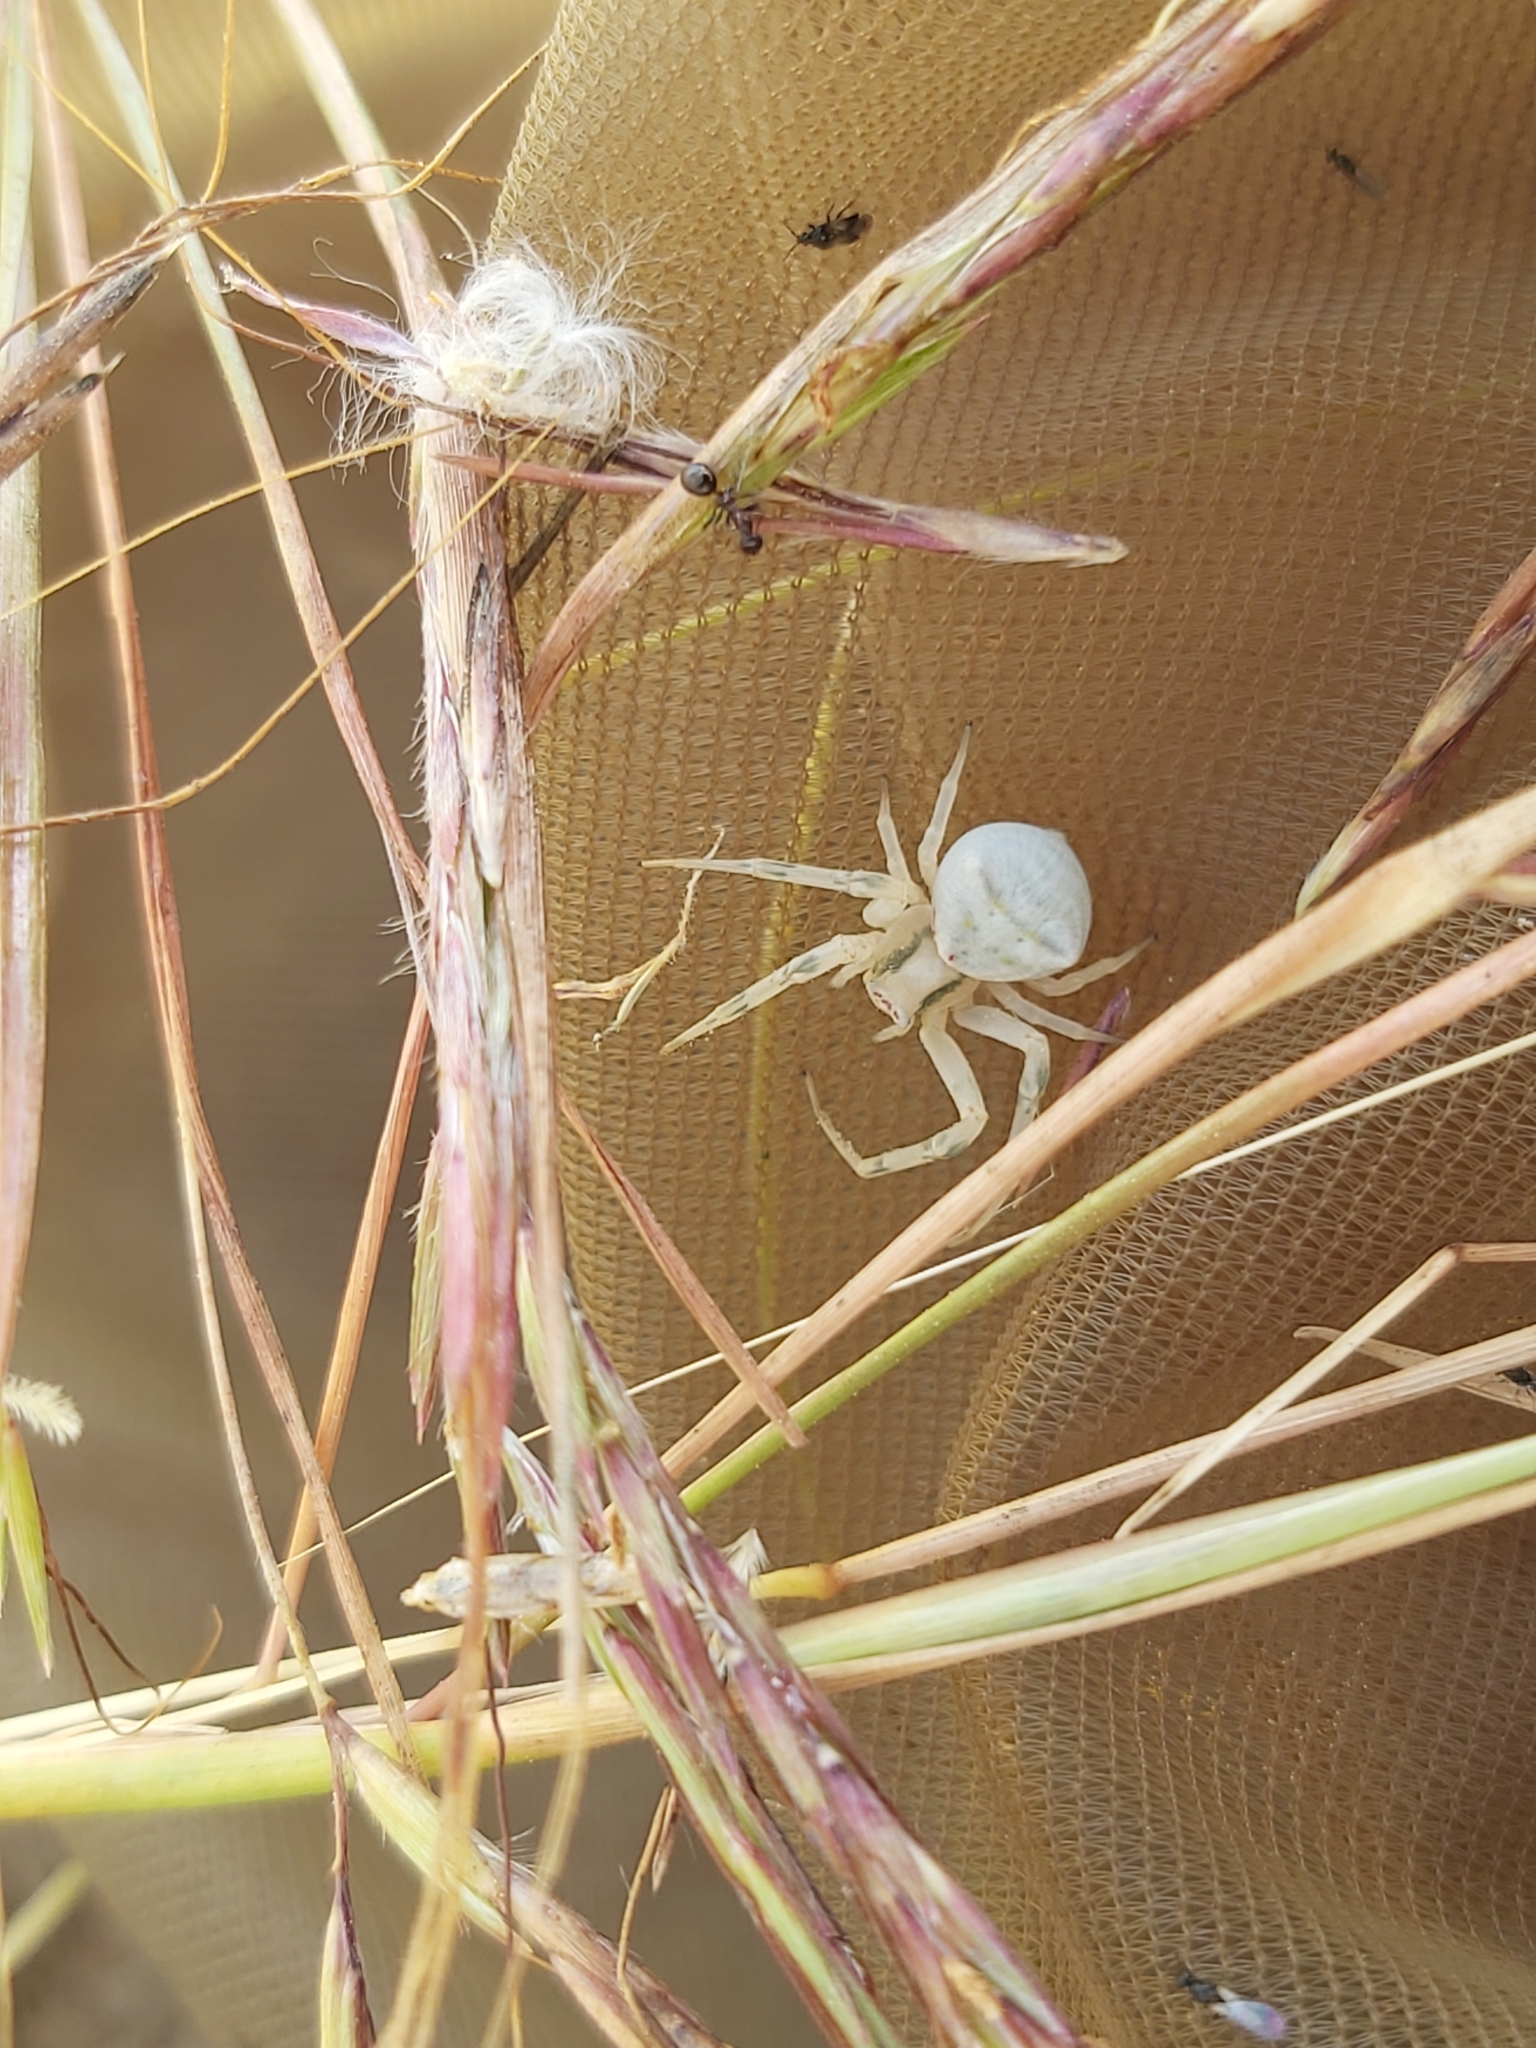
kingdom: Animalia
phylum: Arthropoda
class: Arachnida
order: Araneae
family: Thomisidae
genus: Thomisus
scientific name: Thomisus onustus
